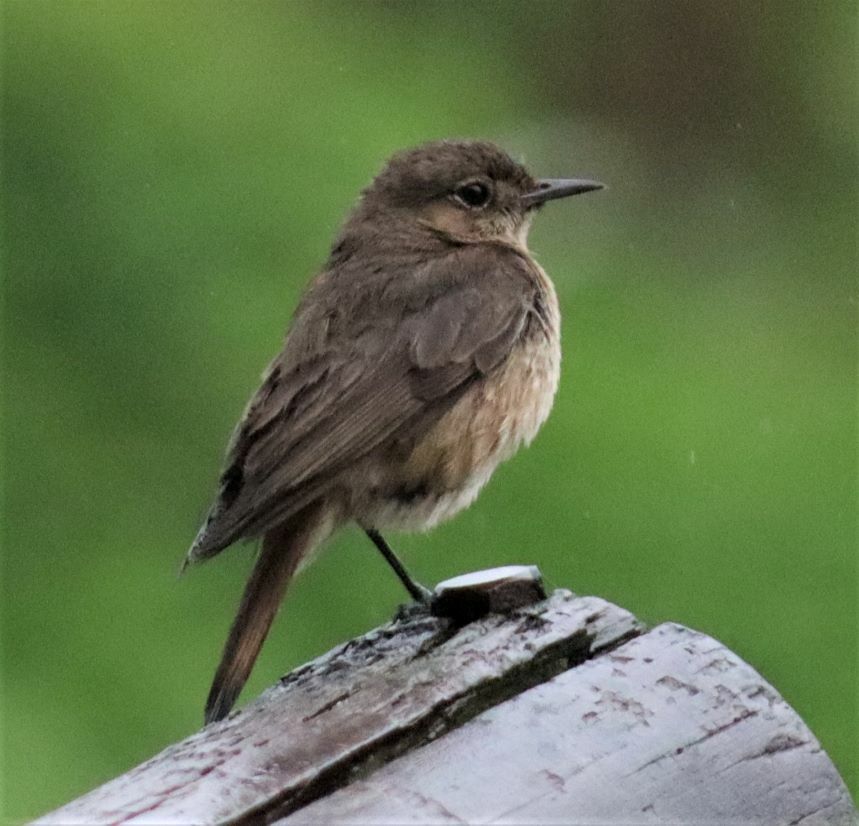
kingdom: Animalia
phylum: Chordata
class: Aves
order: Passeriformes
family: Muscicapidae
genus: Oenanthe
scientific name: Oenanthe familiaris
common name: Familiar chat
